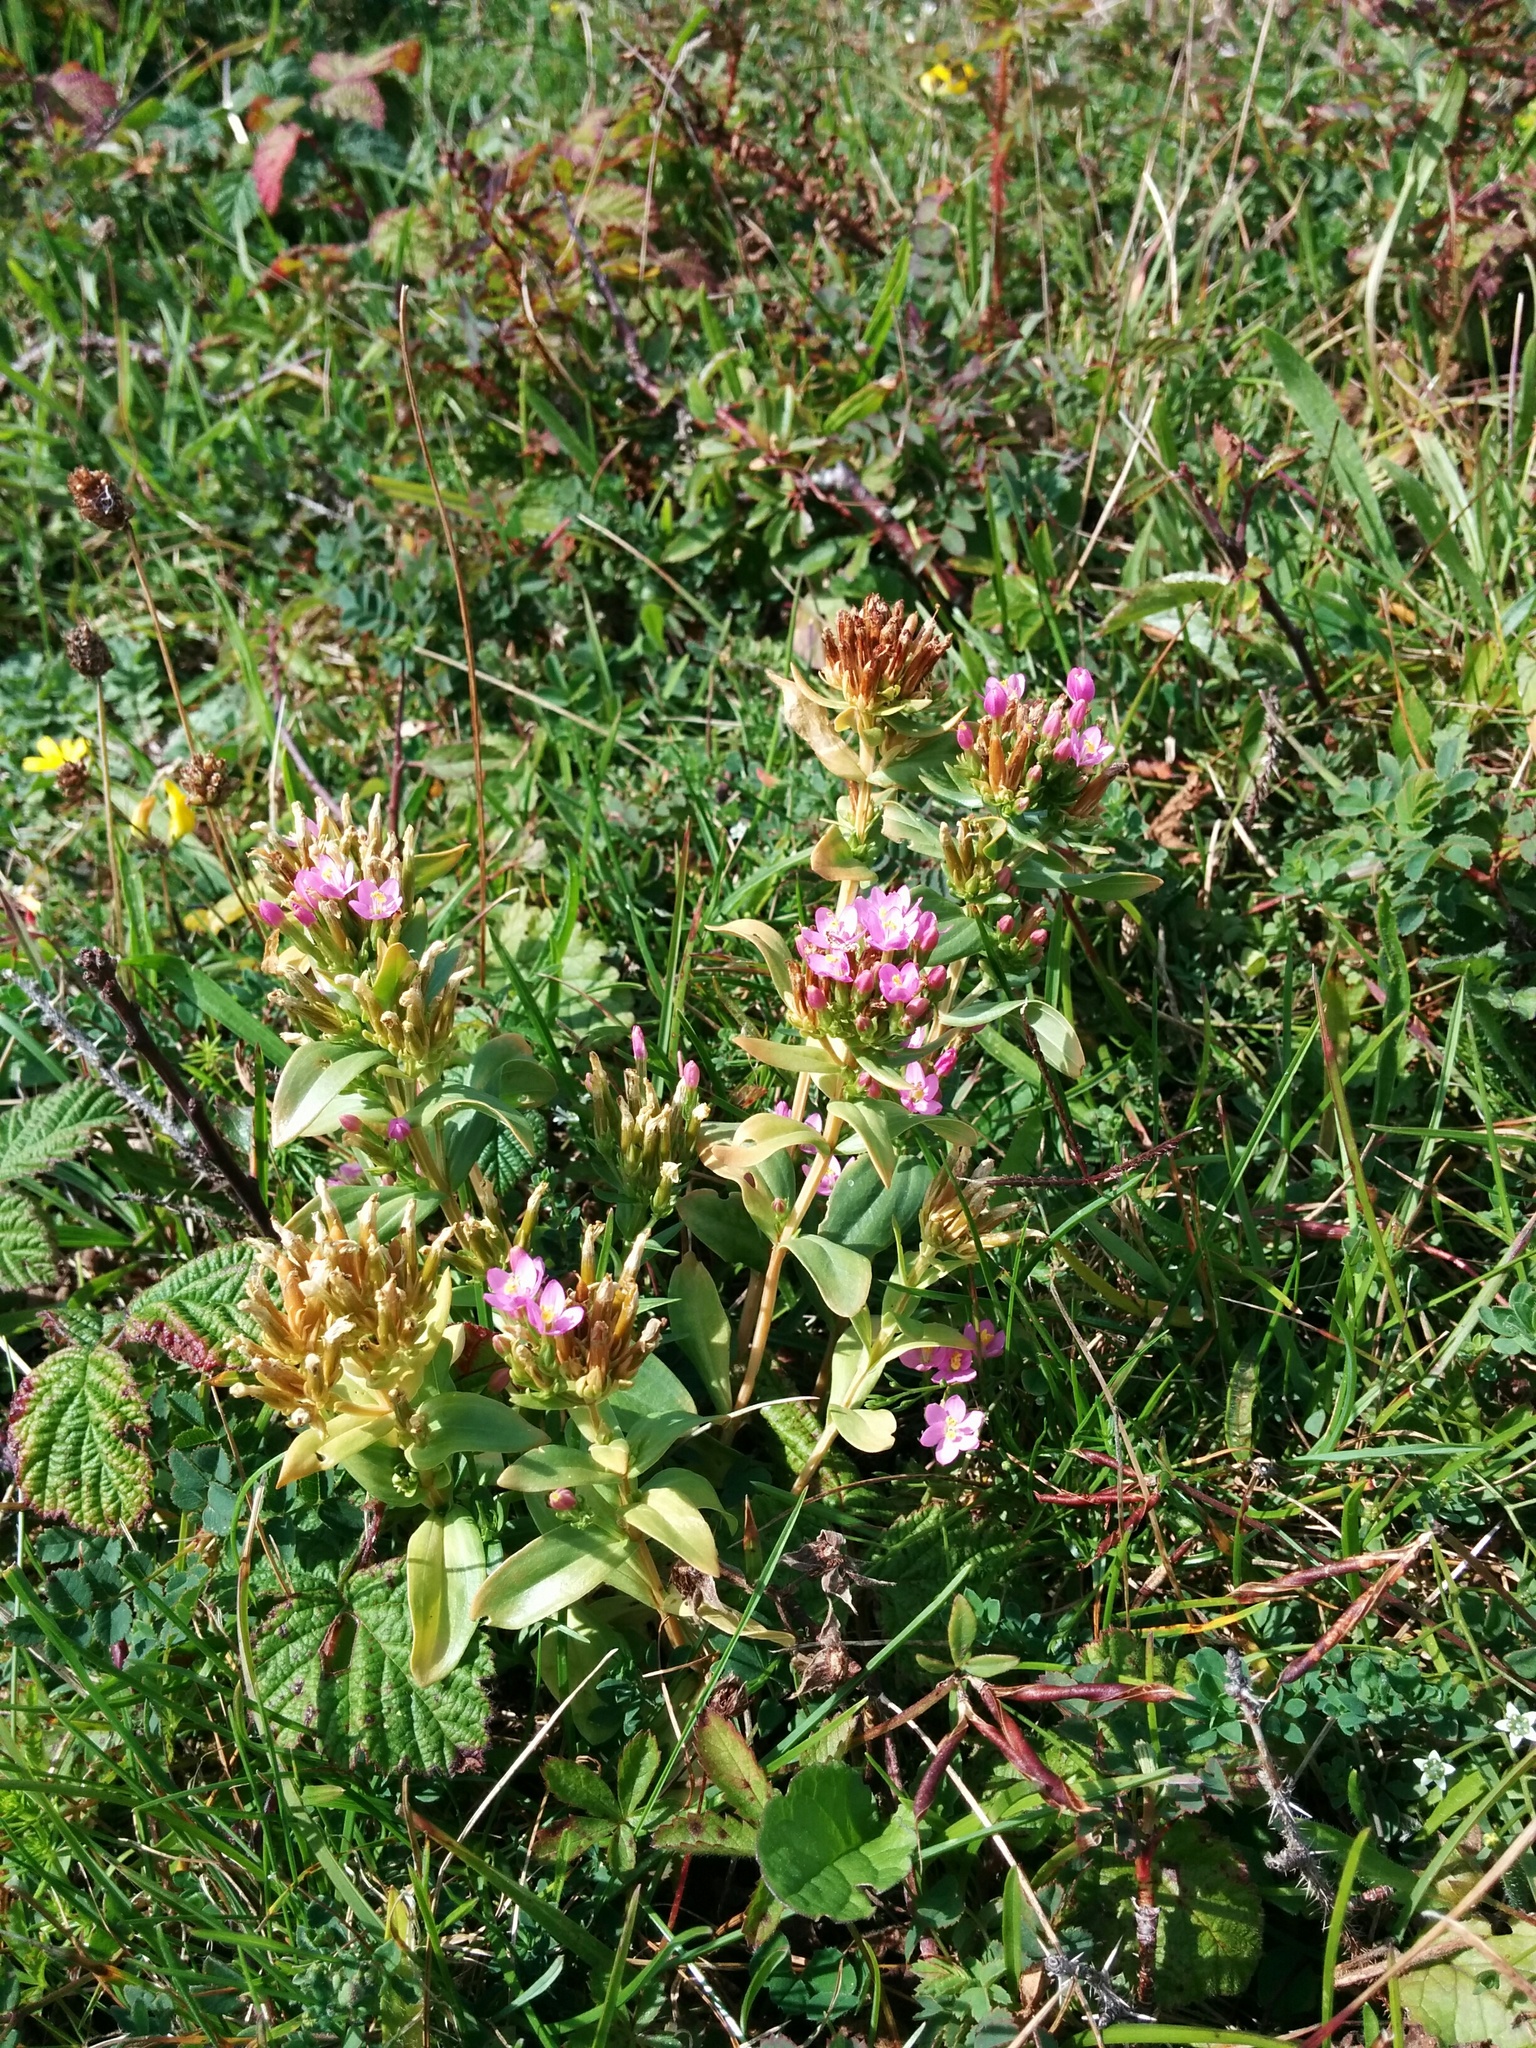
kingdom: Plantae
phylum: Tracheophyta
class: Magnoliopsida
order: Gentianales
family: Gentianaceae
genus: Centaurium
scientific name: Centaurium erythraea
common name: Common centaury
